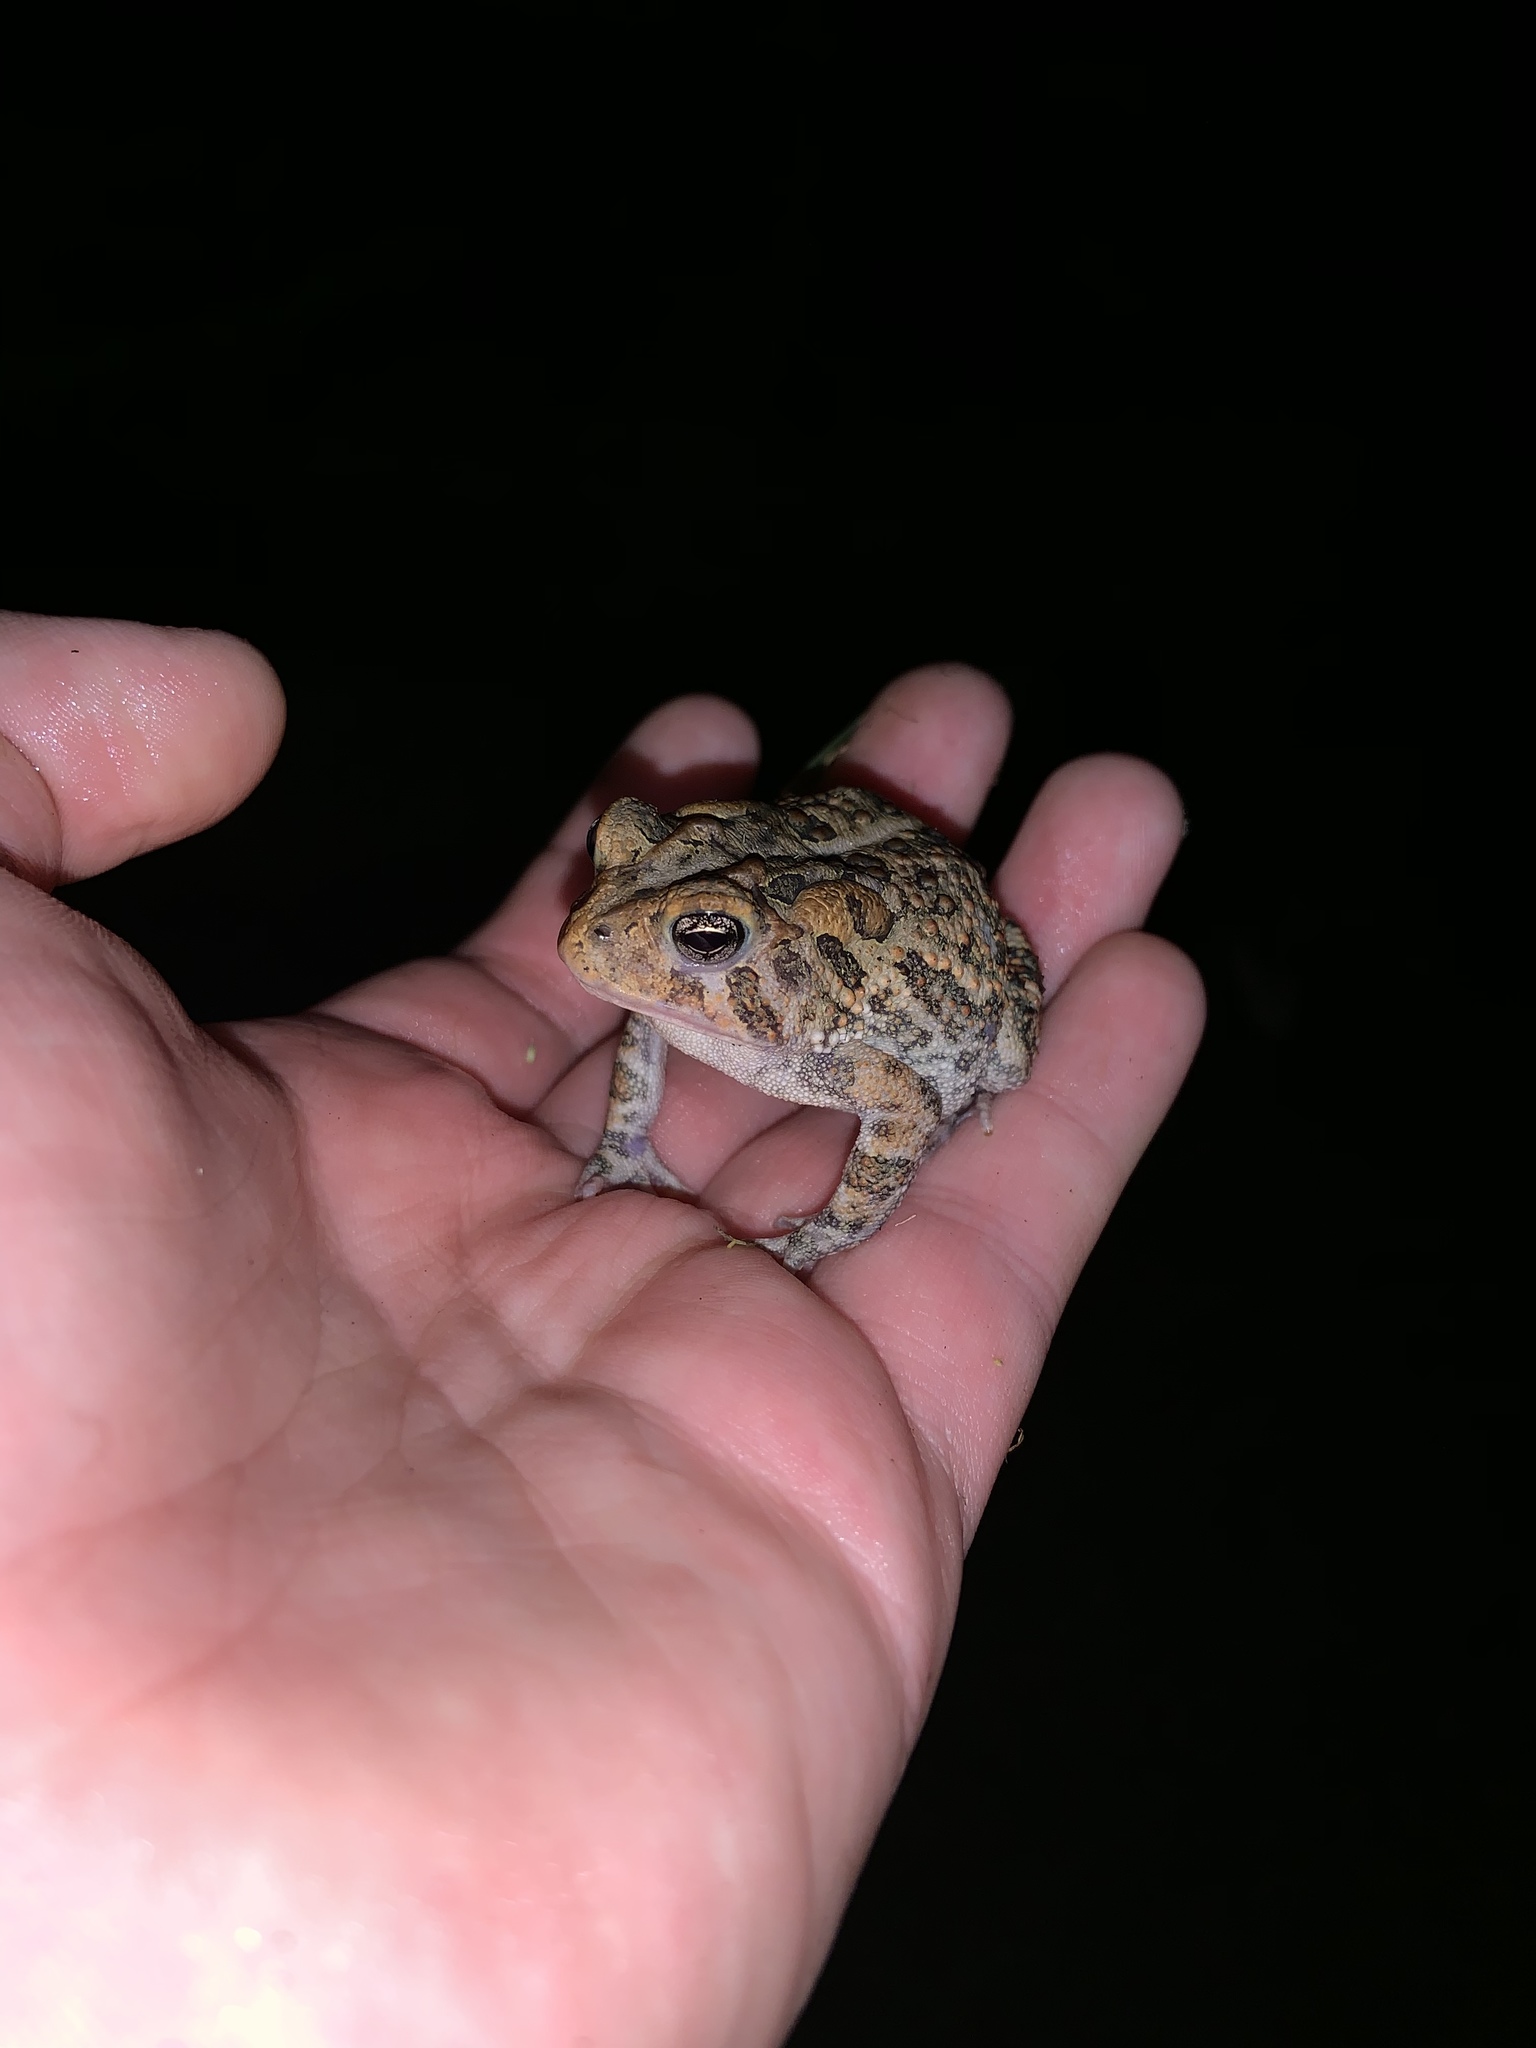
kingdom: Animalia
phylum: Chordata
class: Amphibia
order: Anura
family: Bufonidae
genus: Anaxyrus
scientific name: Anaxyrus terrestris
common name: Southern toad
